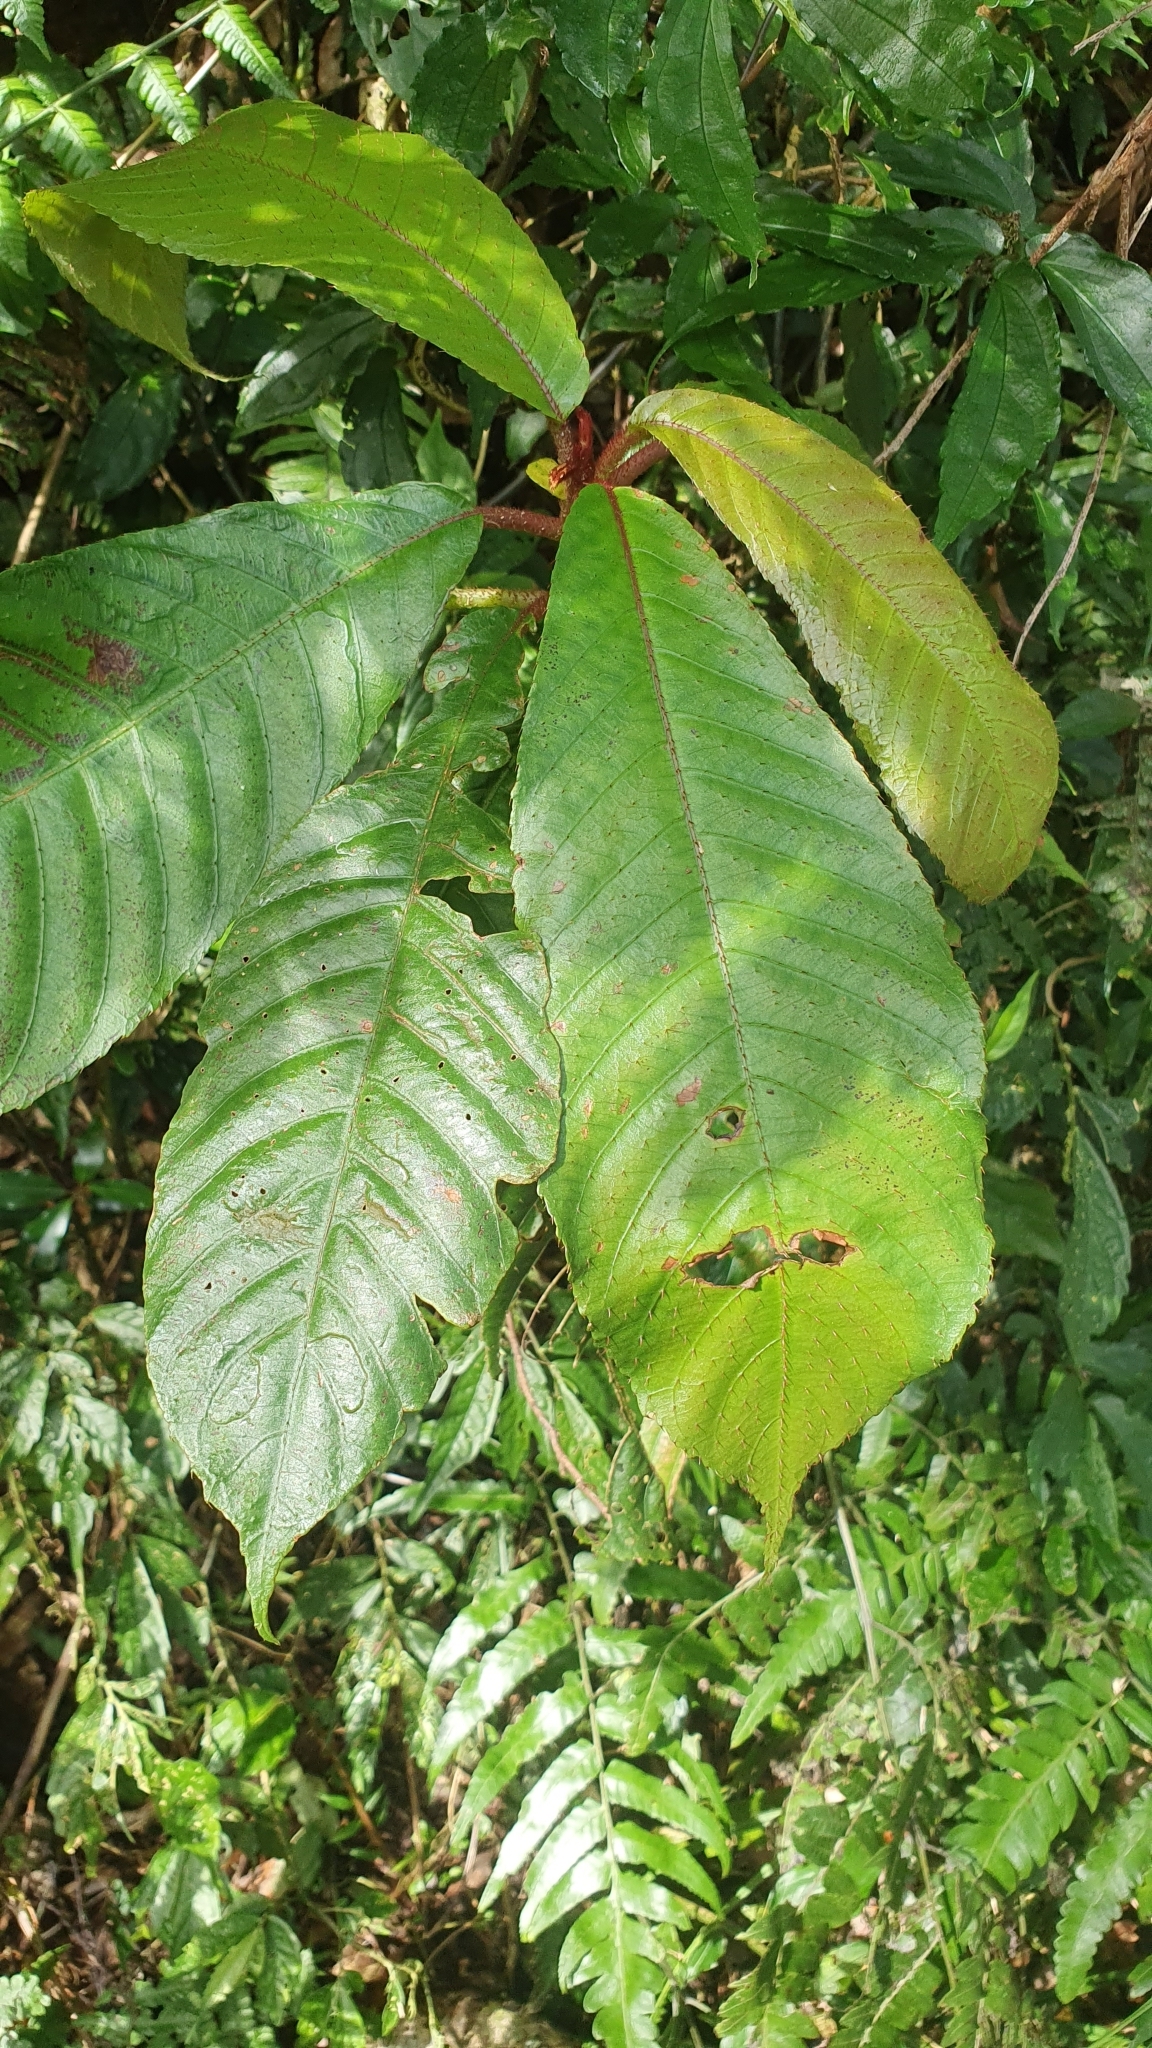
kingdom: Plantae
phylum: Tracheophyta
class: Magnoliopsida
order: Ericales
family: Actinidiaceae
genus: Saurauia
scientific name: Saurauia tristyla
